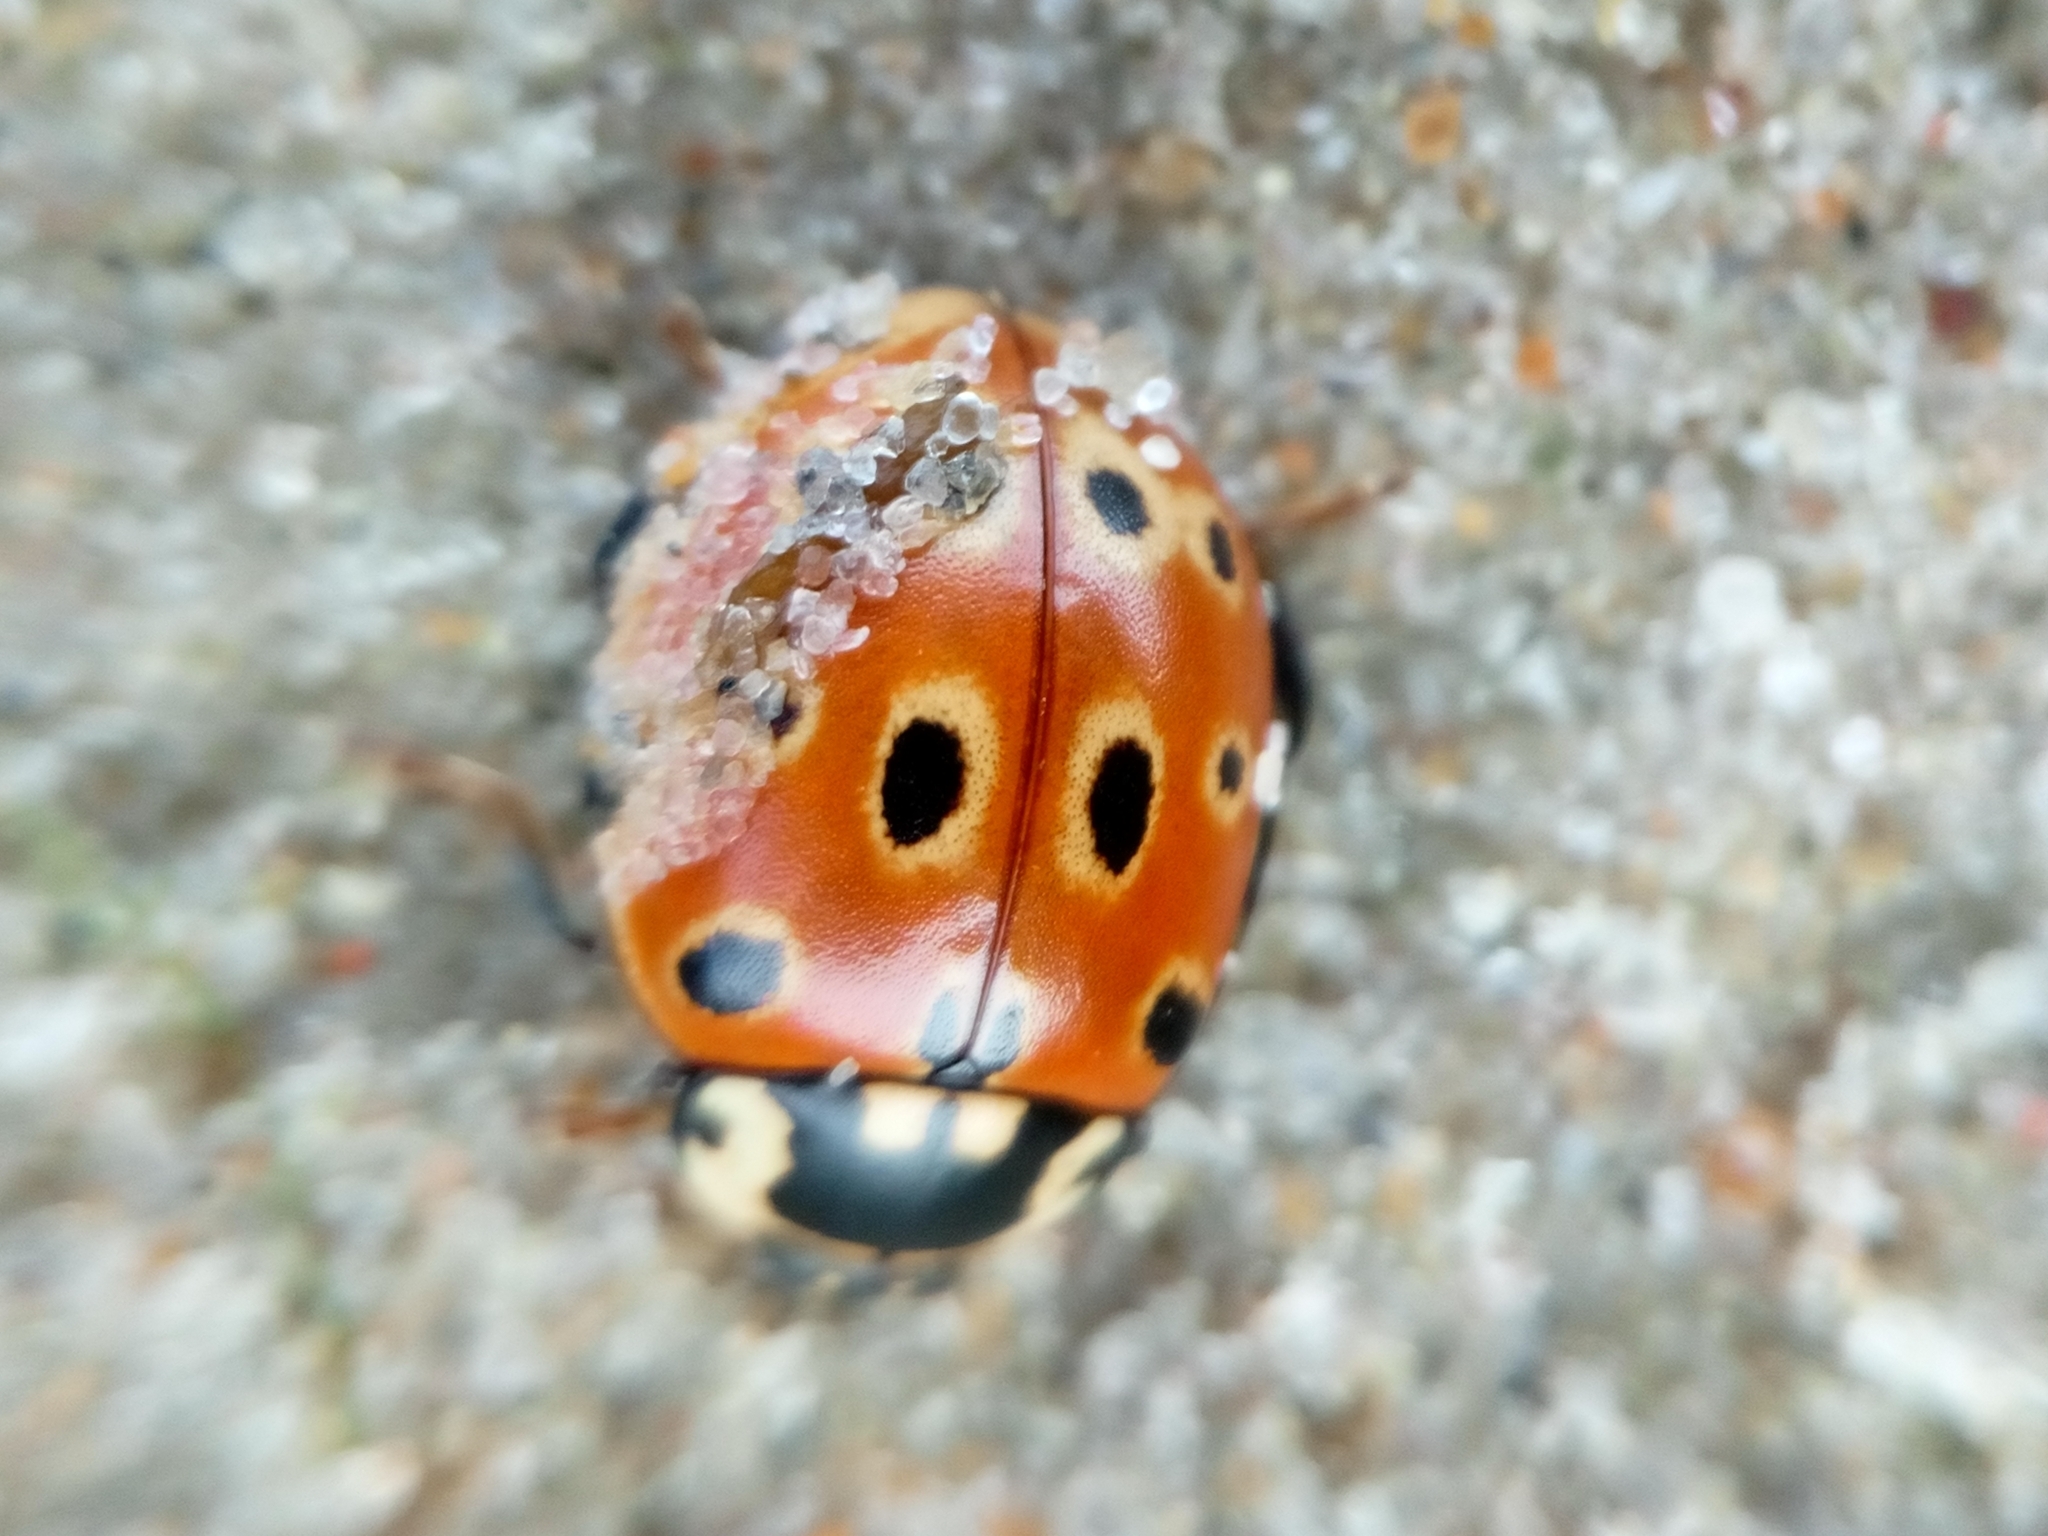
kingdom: Animalia
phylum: Arthropoda
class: Insecta
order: Coleoptera
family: Coccinellidae
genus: Anatis
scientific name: Anatis ocellata
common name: Eyed ladybird
